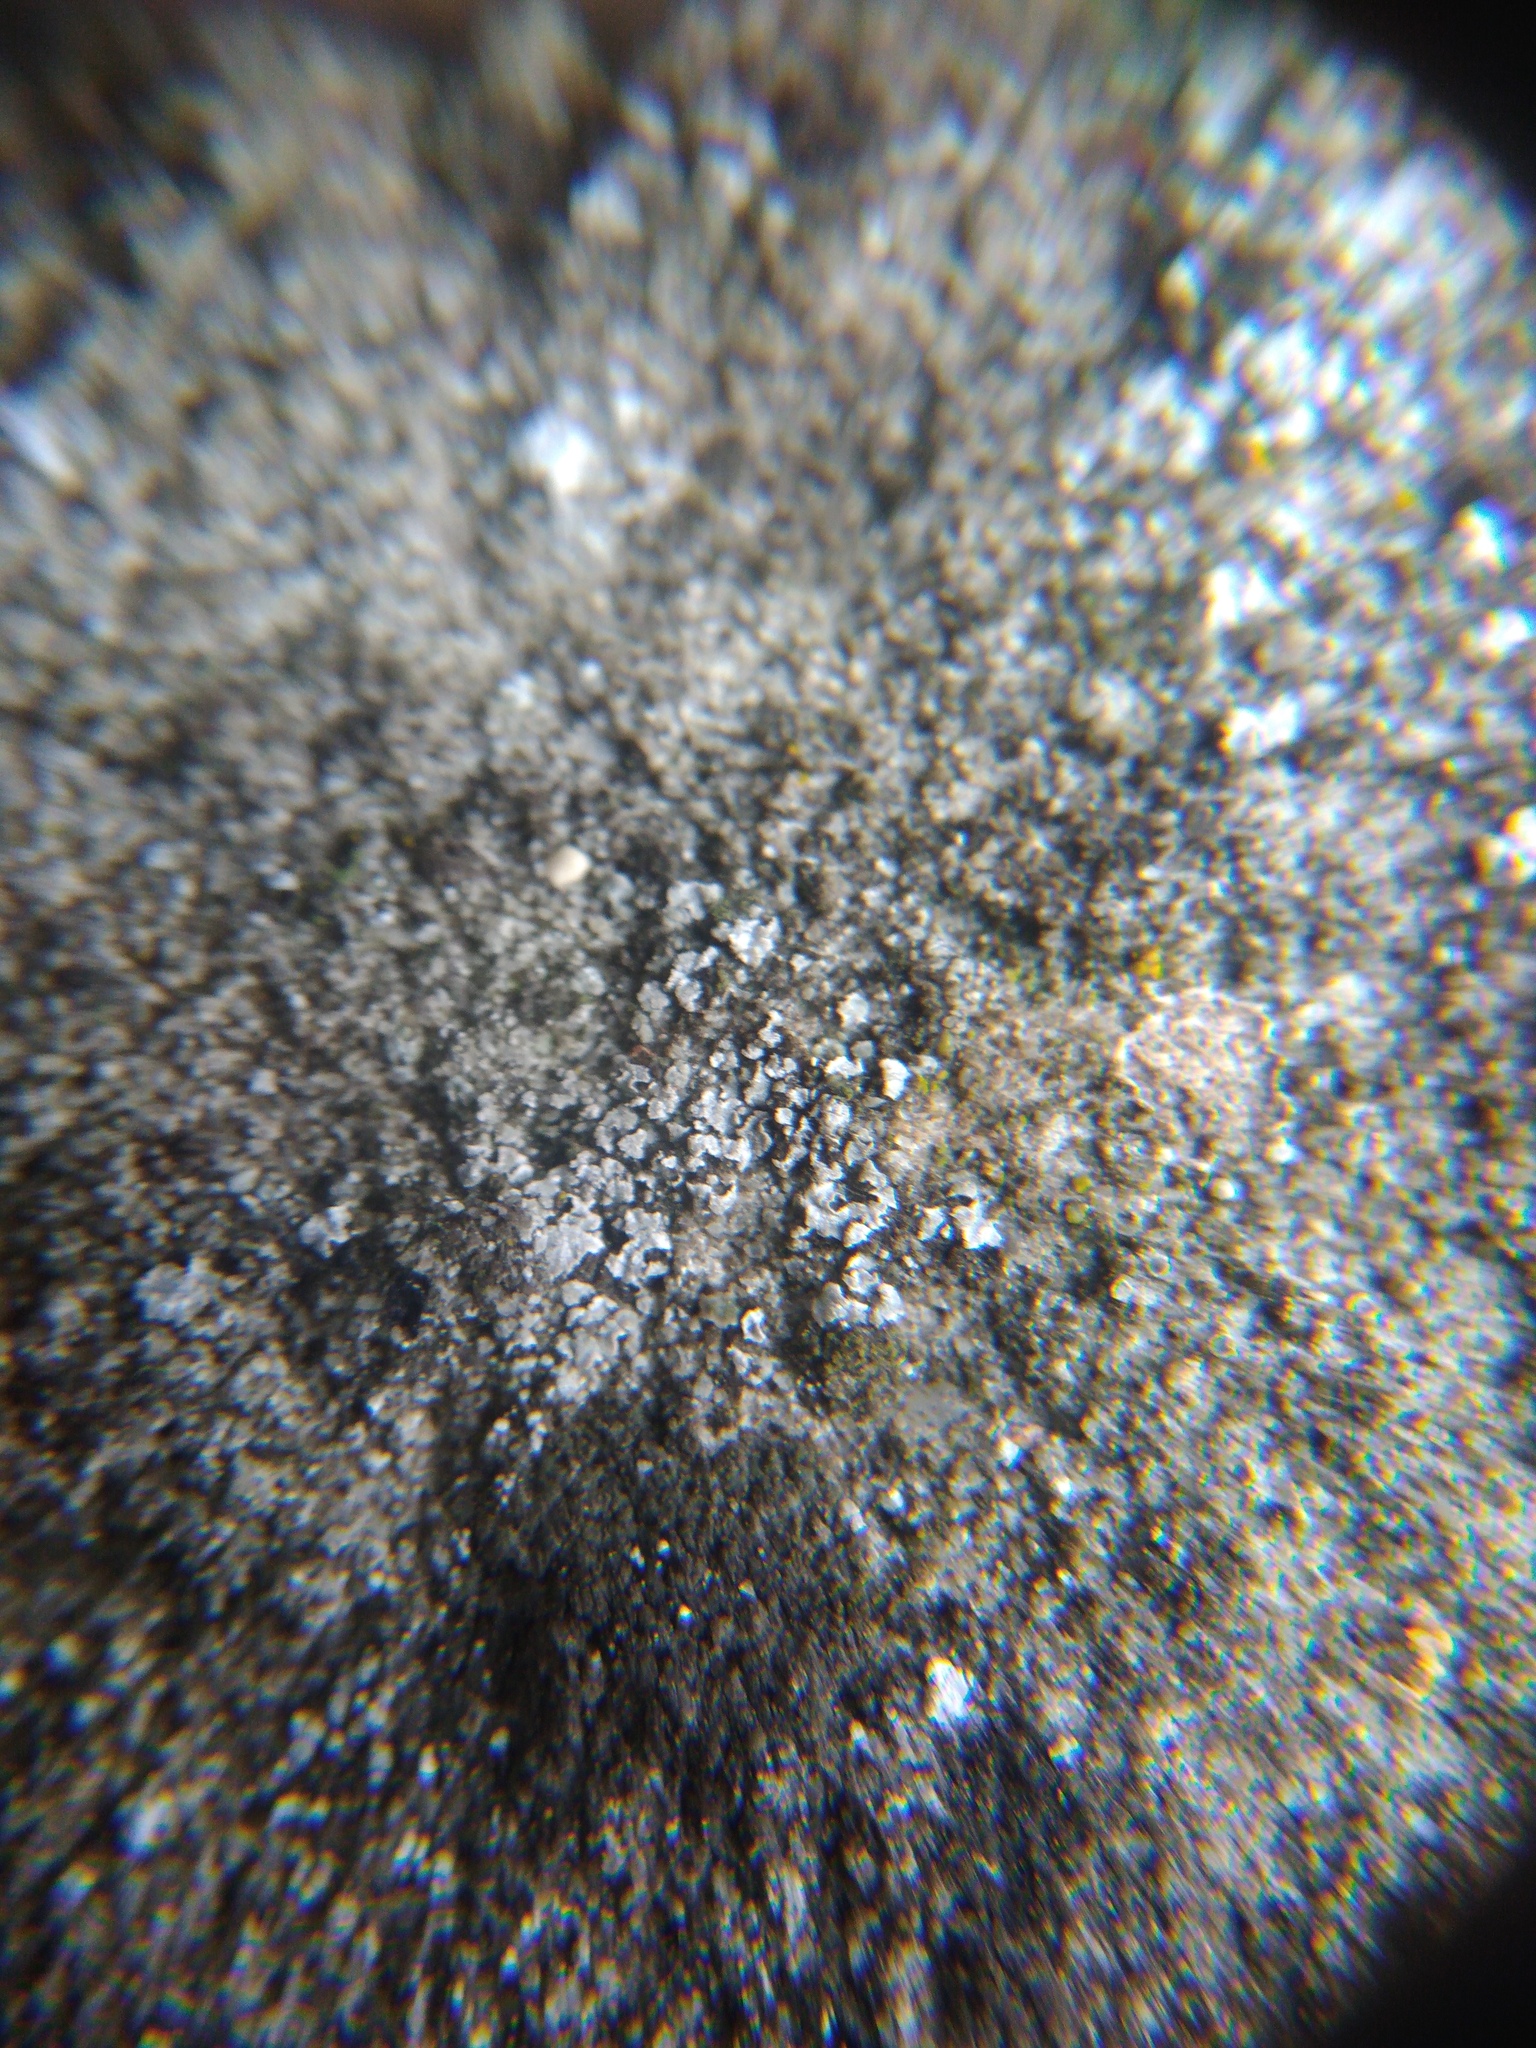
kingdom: Fungi
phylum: Ascomycota
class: Lecanoromycetes
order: Acarosporales
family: Acarosporaceae
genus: Acarospora
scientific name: Acarospora moenium
